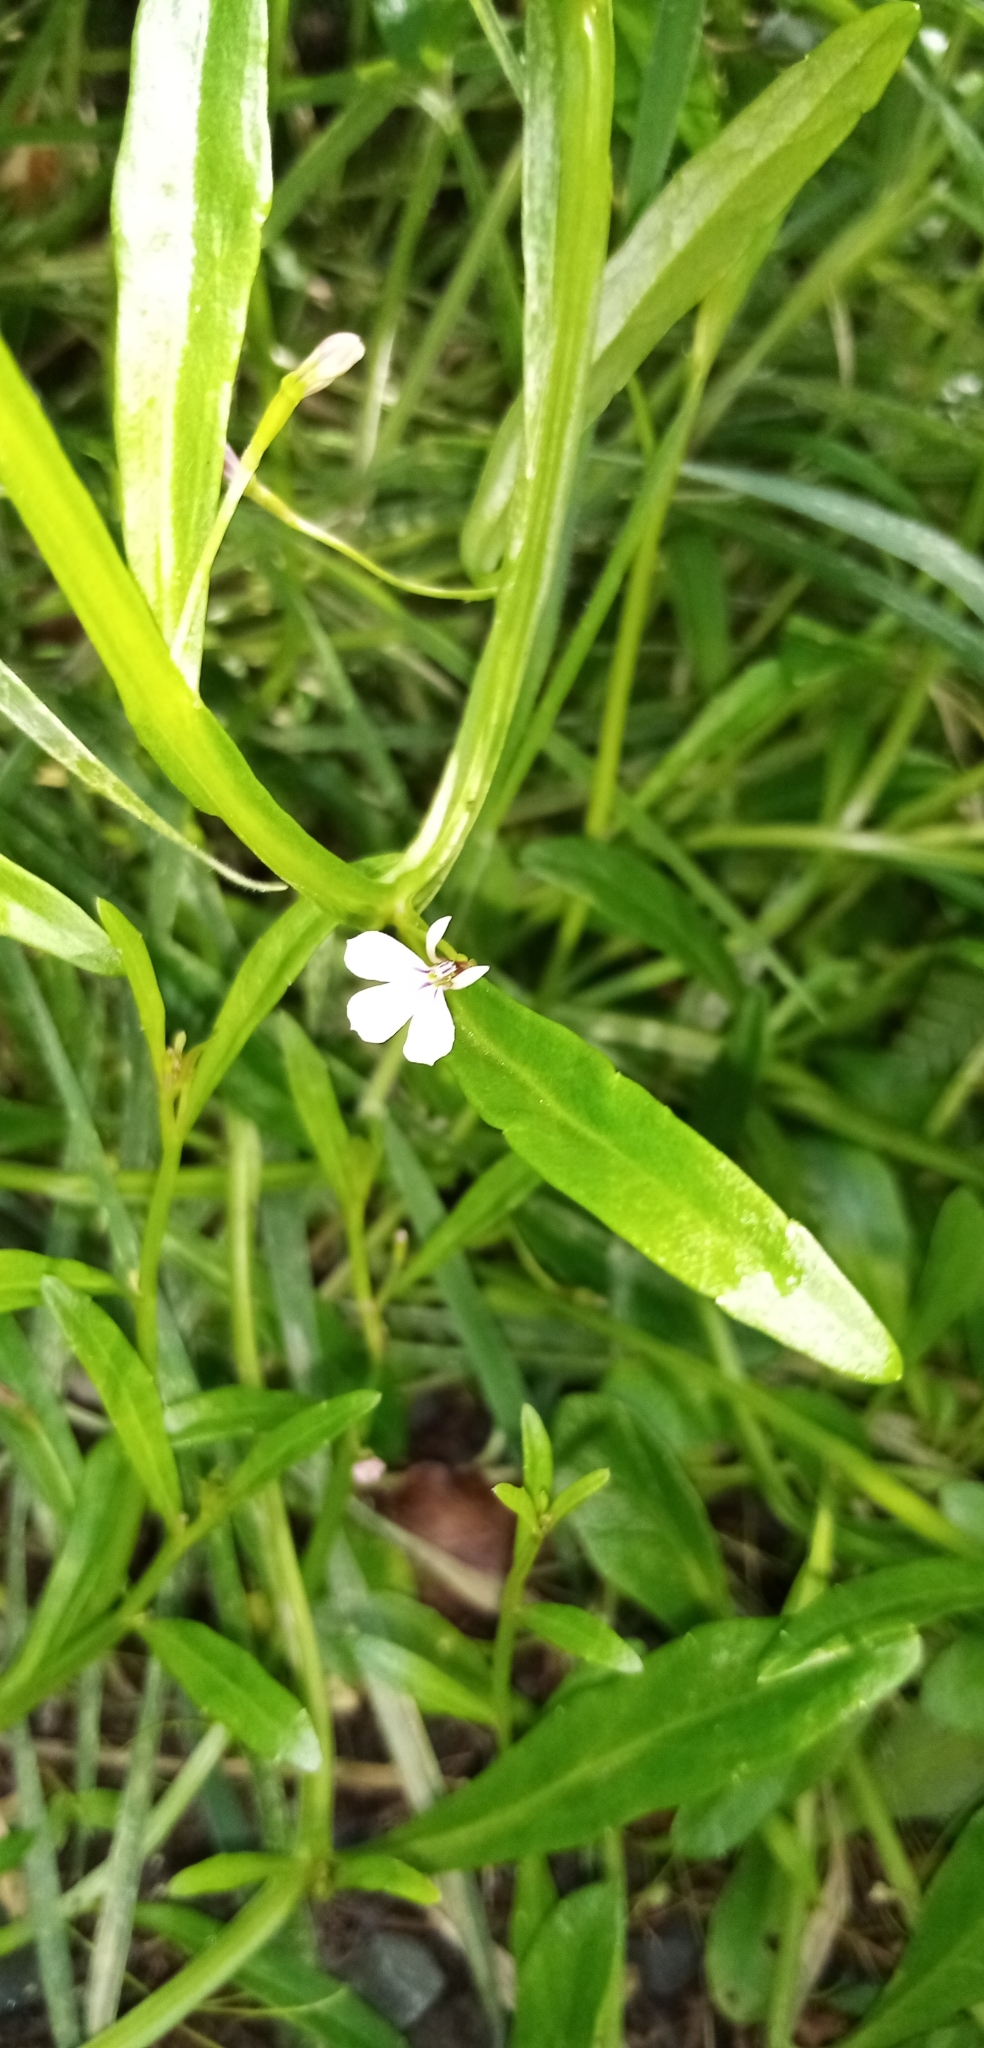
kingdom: Plantae
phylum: Tracheophyta
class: Magnoliopsida
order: Asterales
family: Campanulaceae
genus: Lobelia
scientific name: Lobelia anceps
